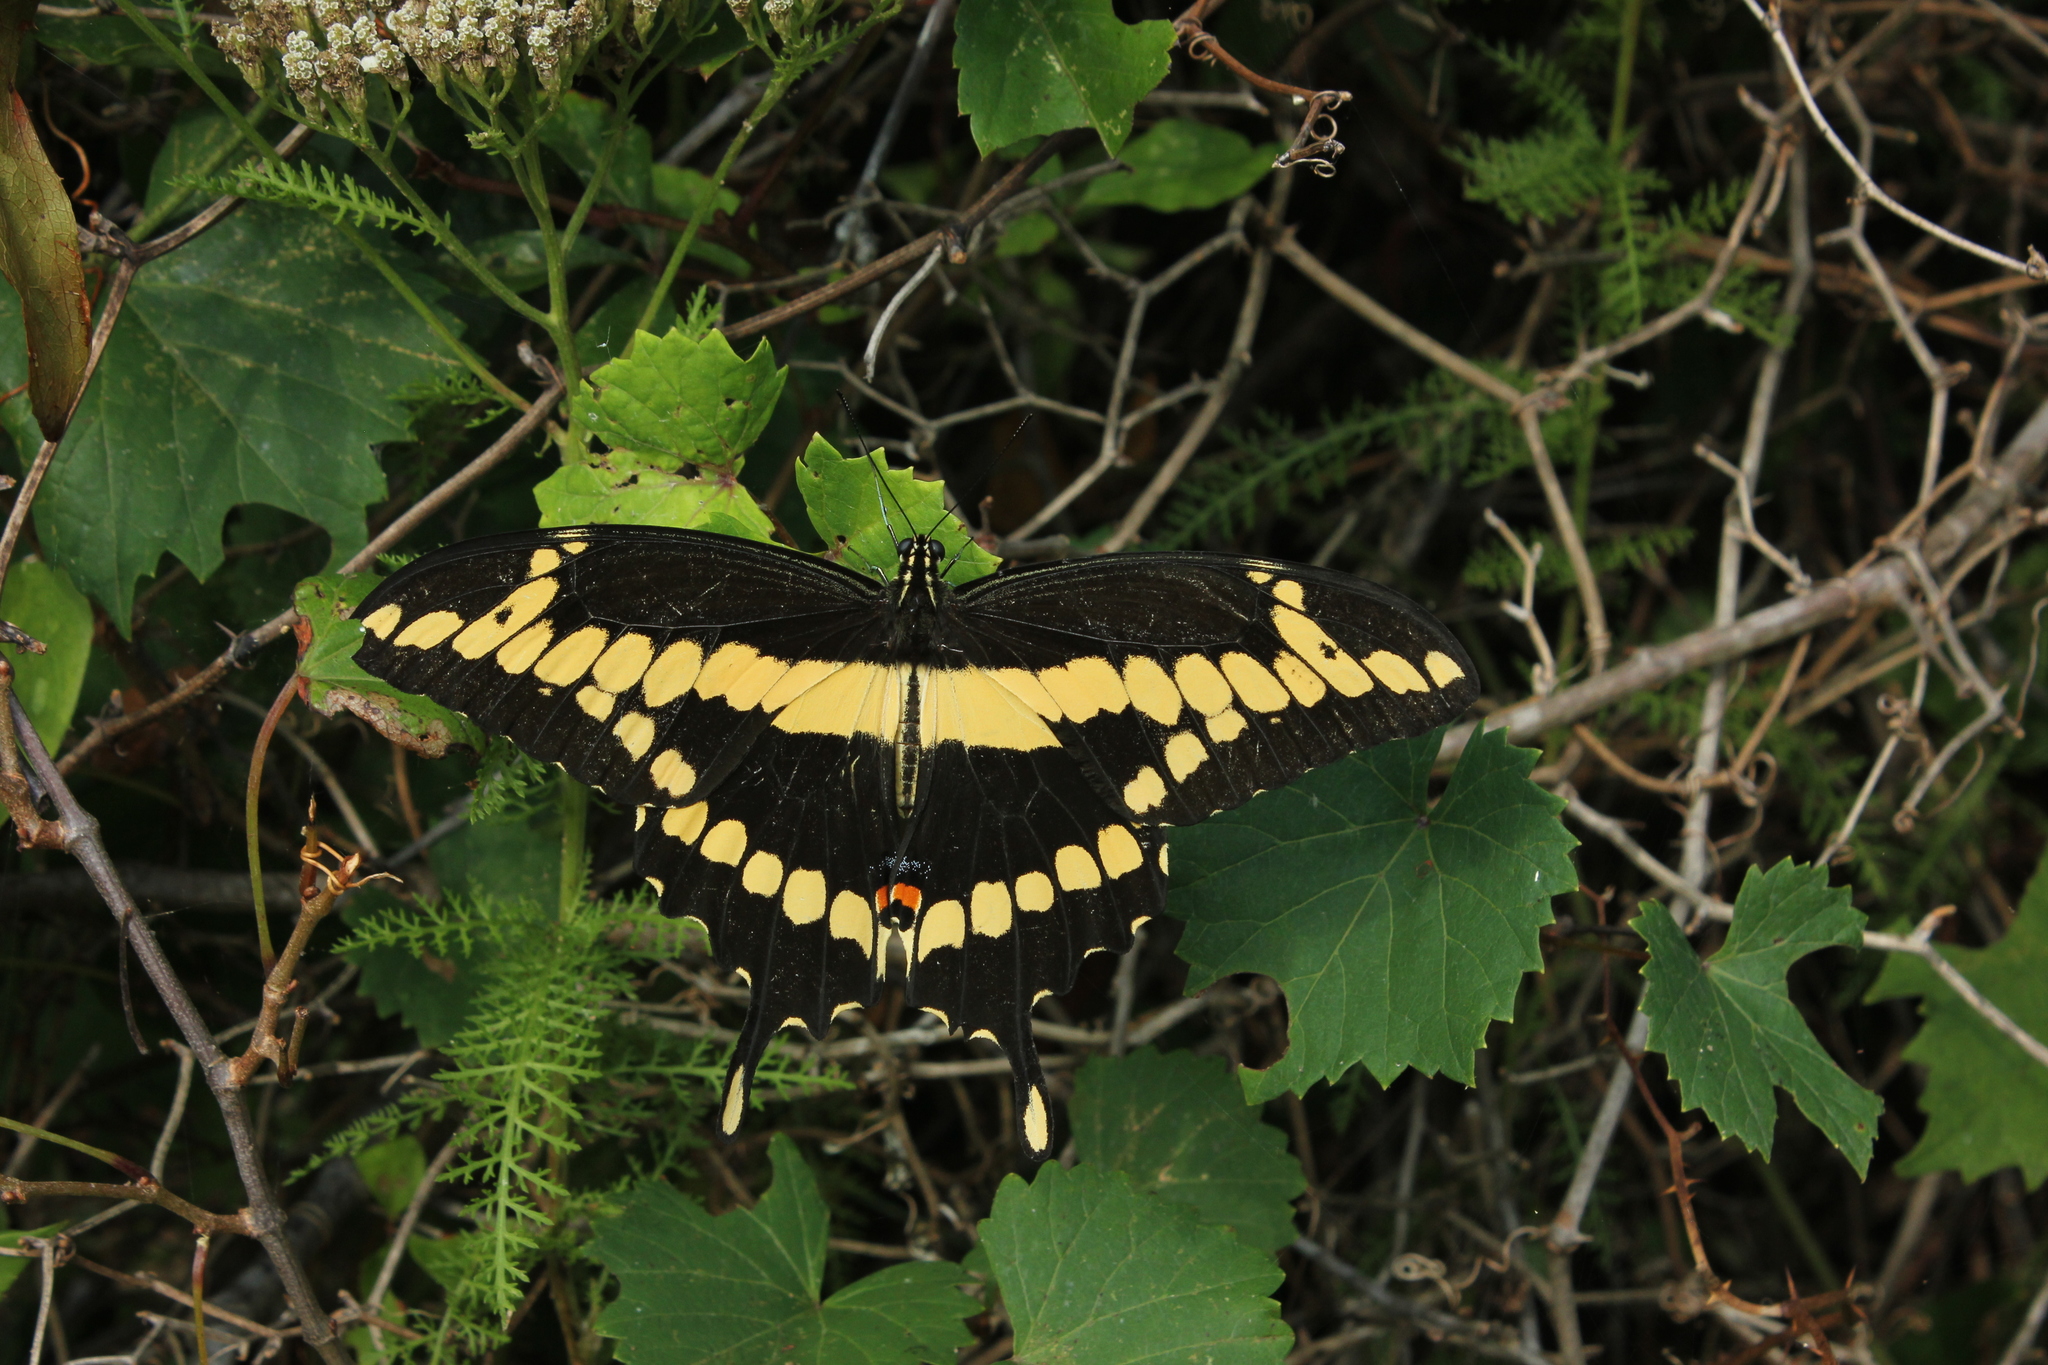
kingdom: Animalia
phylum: Arthropoda
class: Insecta
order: Lepidoptera
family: Papilionidae
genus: Papilio
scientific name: Papilio cresphontes
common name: Giant swallowtail
